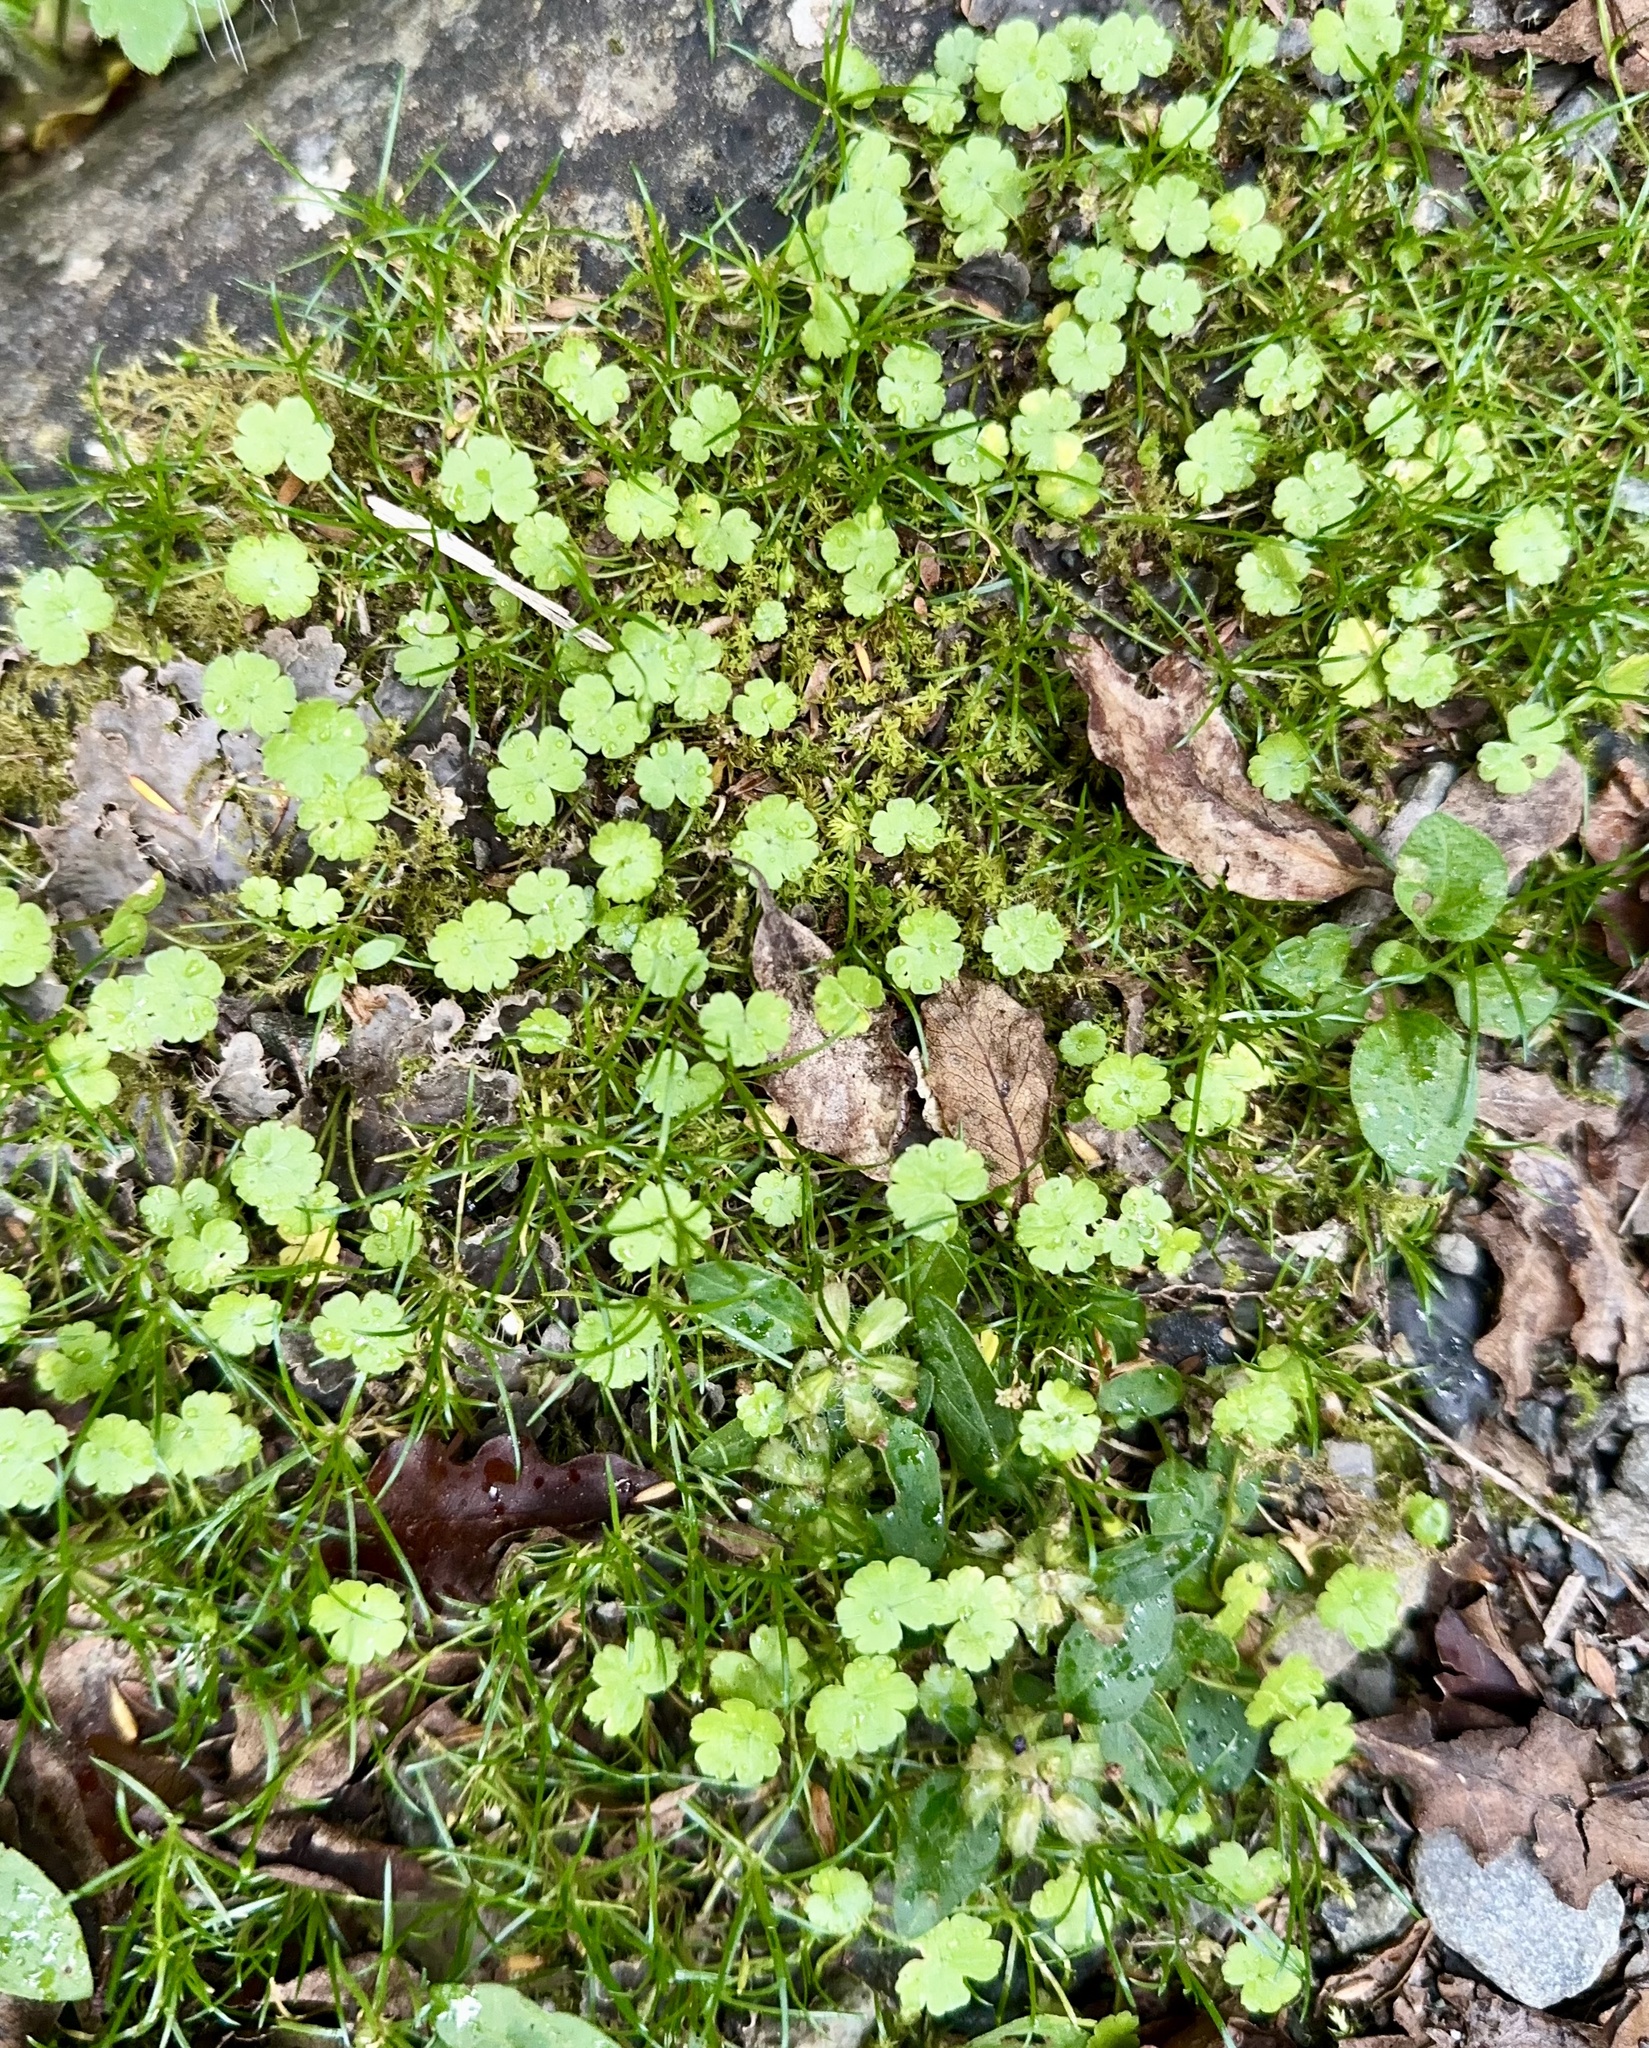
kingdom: Plantae
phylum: Tracheophyta
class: Magnoliopsida
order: Apiales
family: Araliaceae
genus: Hydrocotyle
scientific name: Hydrocotyle heteromeria
